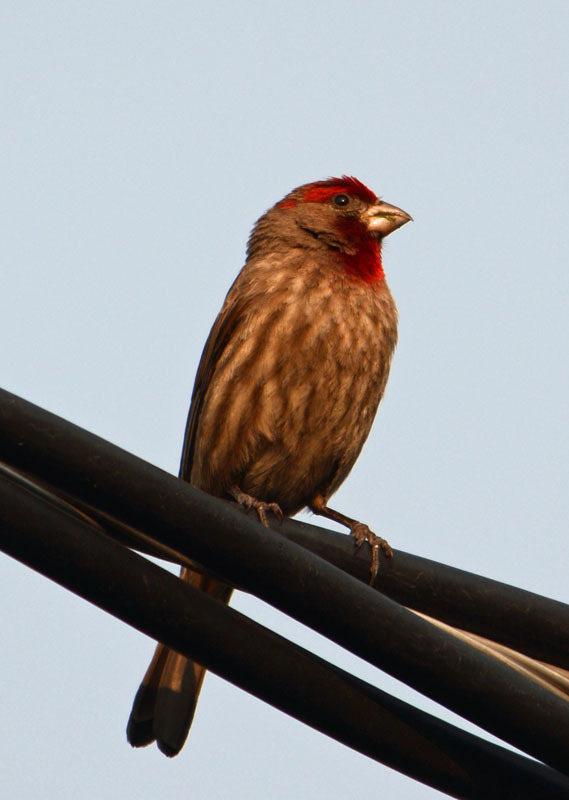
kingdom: Animalia
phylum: Chordata
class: Aves
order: Passeriformes
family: Fringillidae
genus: Haemorhous
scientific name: Haemorhous mexicanus
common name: House finch
